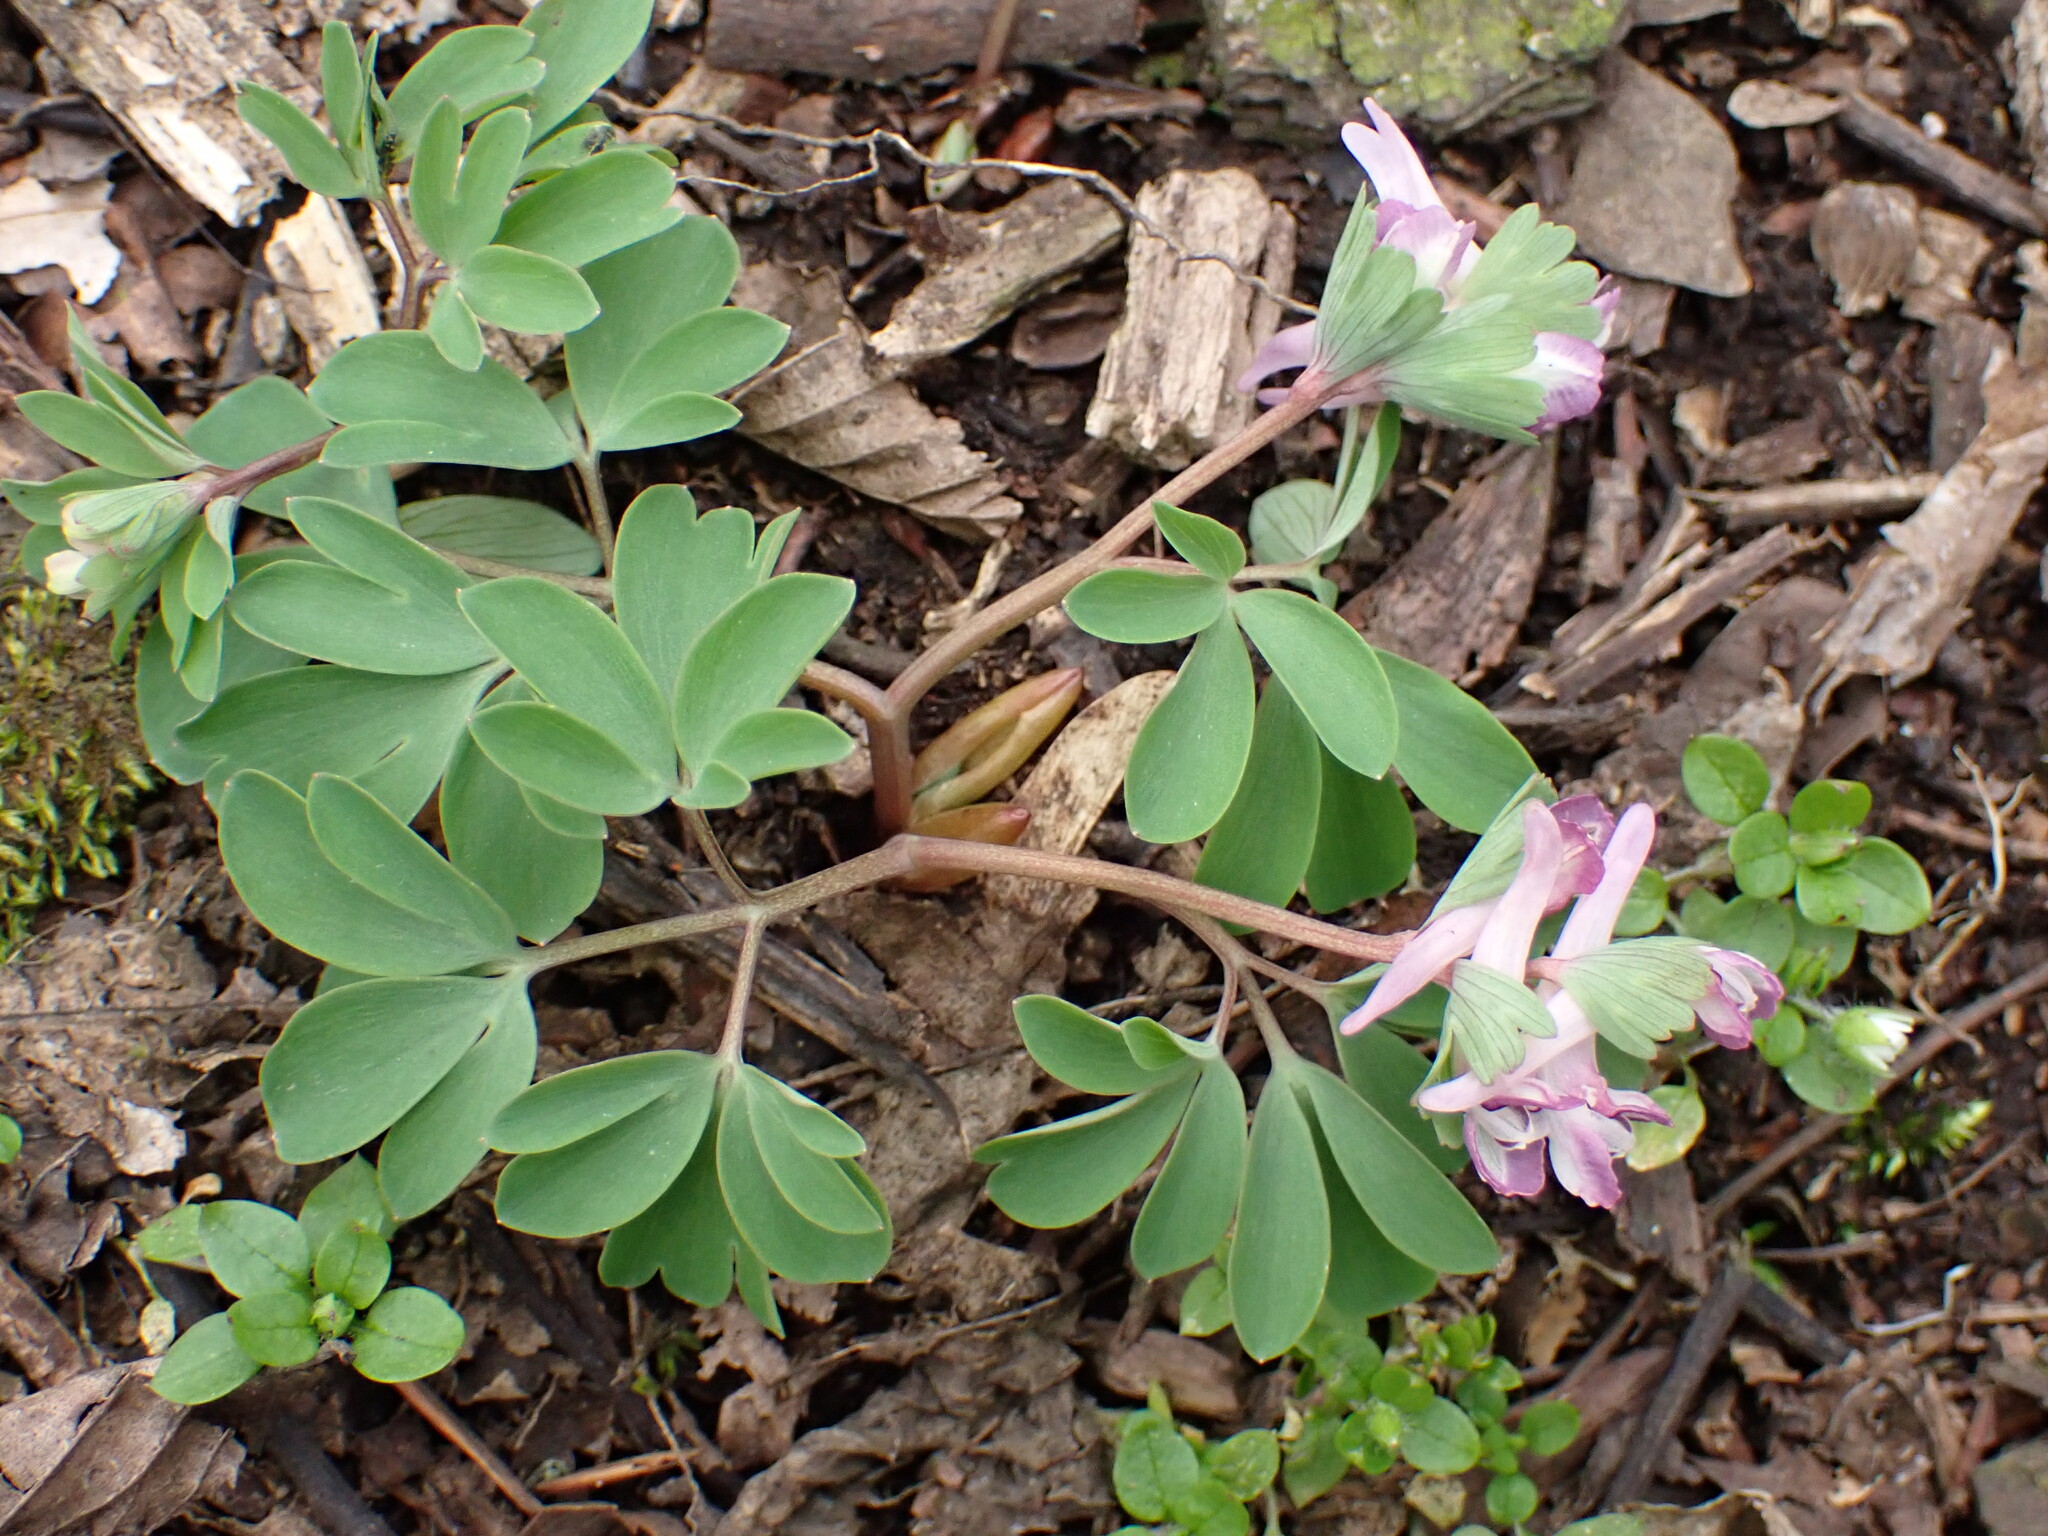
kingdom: Plantae
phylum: Tracheophyta
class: Magnoliopsida
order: Ranunculales
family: Papaveraceae
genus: Corydalis
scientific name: Corydalis pumila
